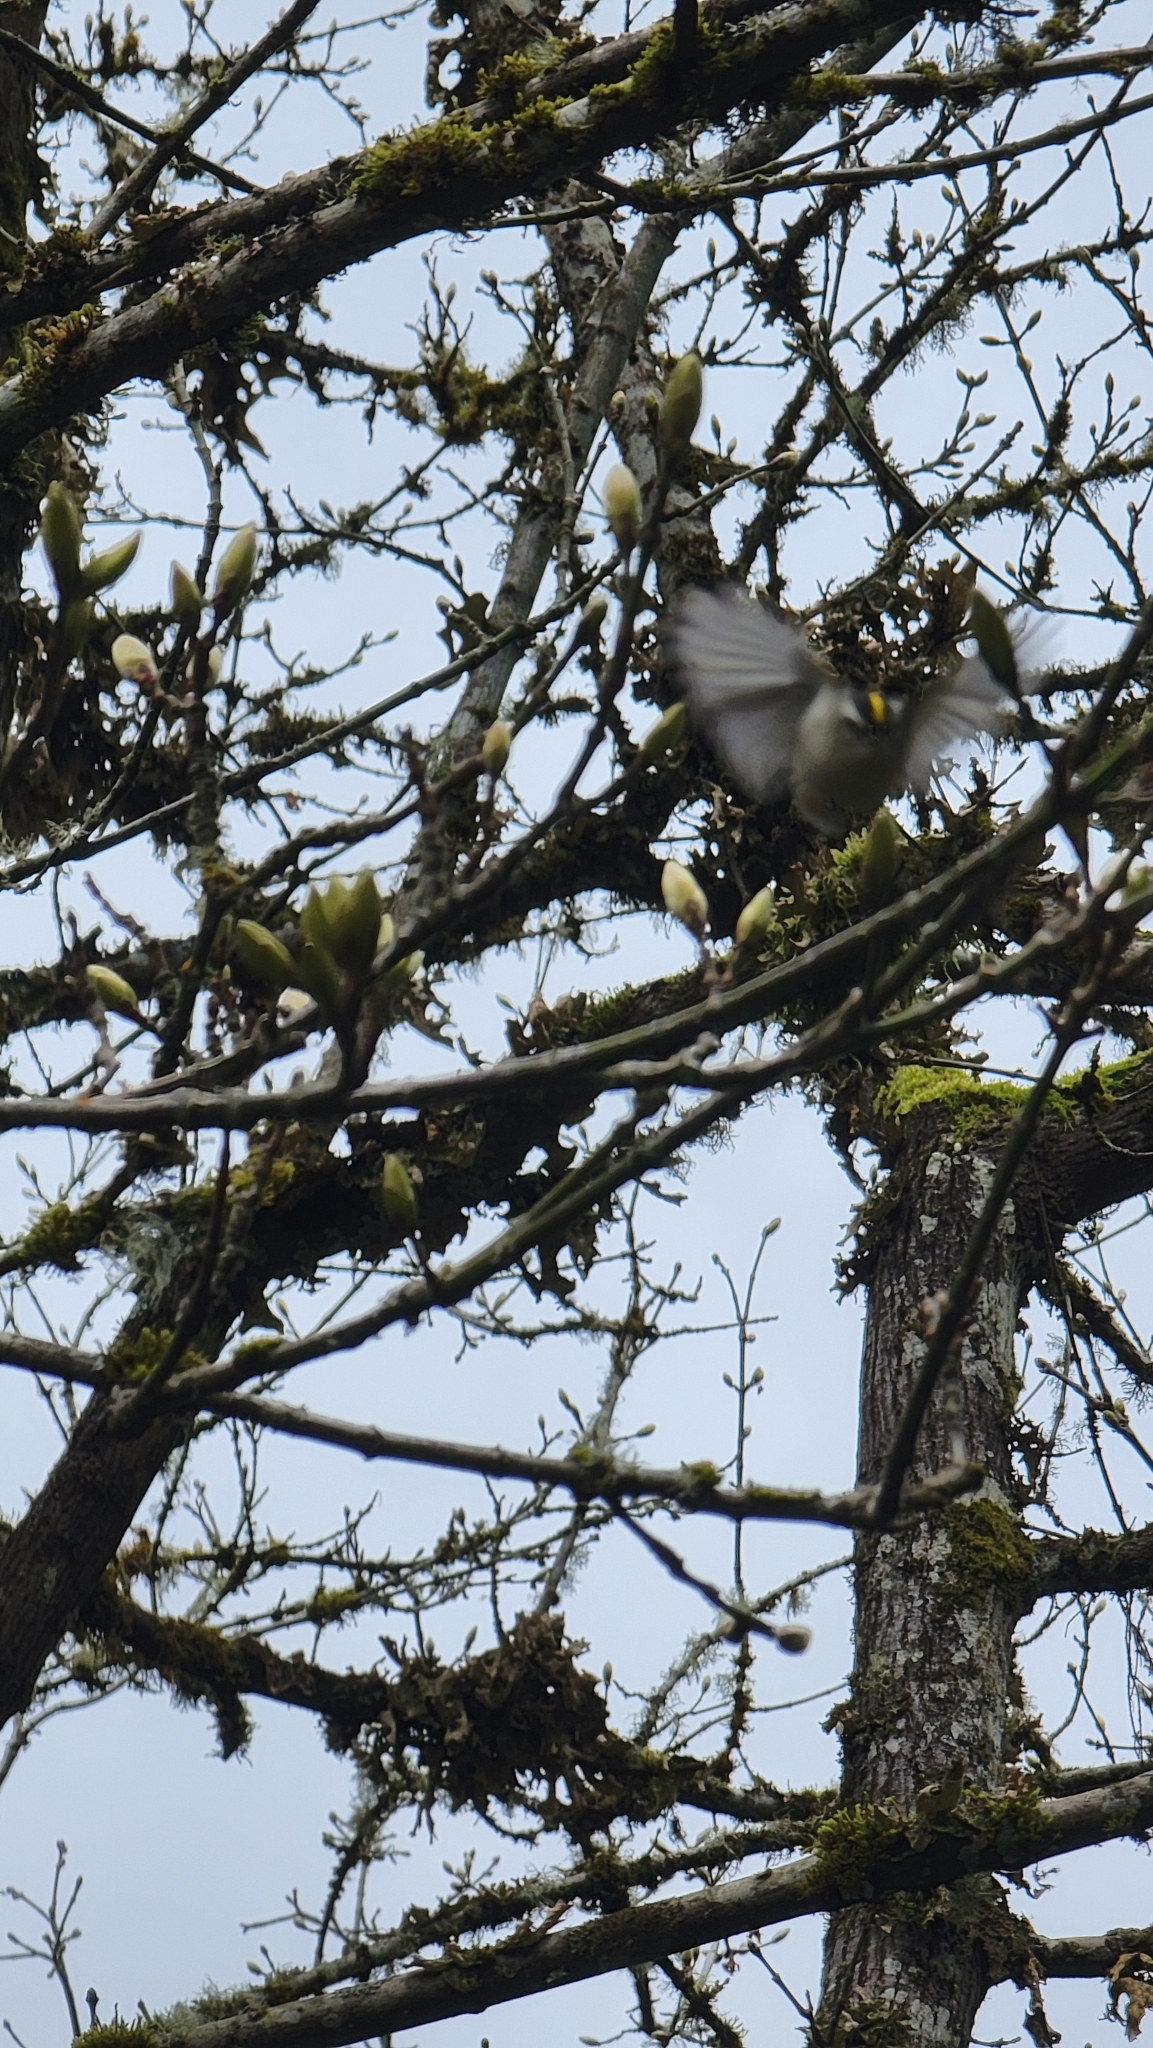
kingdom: Animalia
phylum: Chordata
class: Aves
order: Passeriformes
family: Regulidae
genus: Regulus
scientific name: Regulus satrapa
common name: Golden-crowned kinglet
